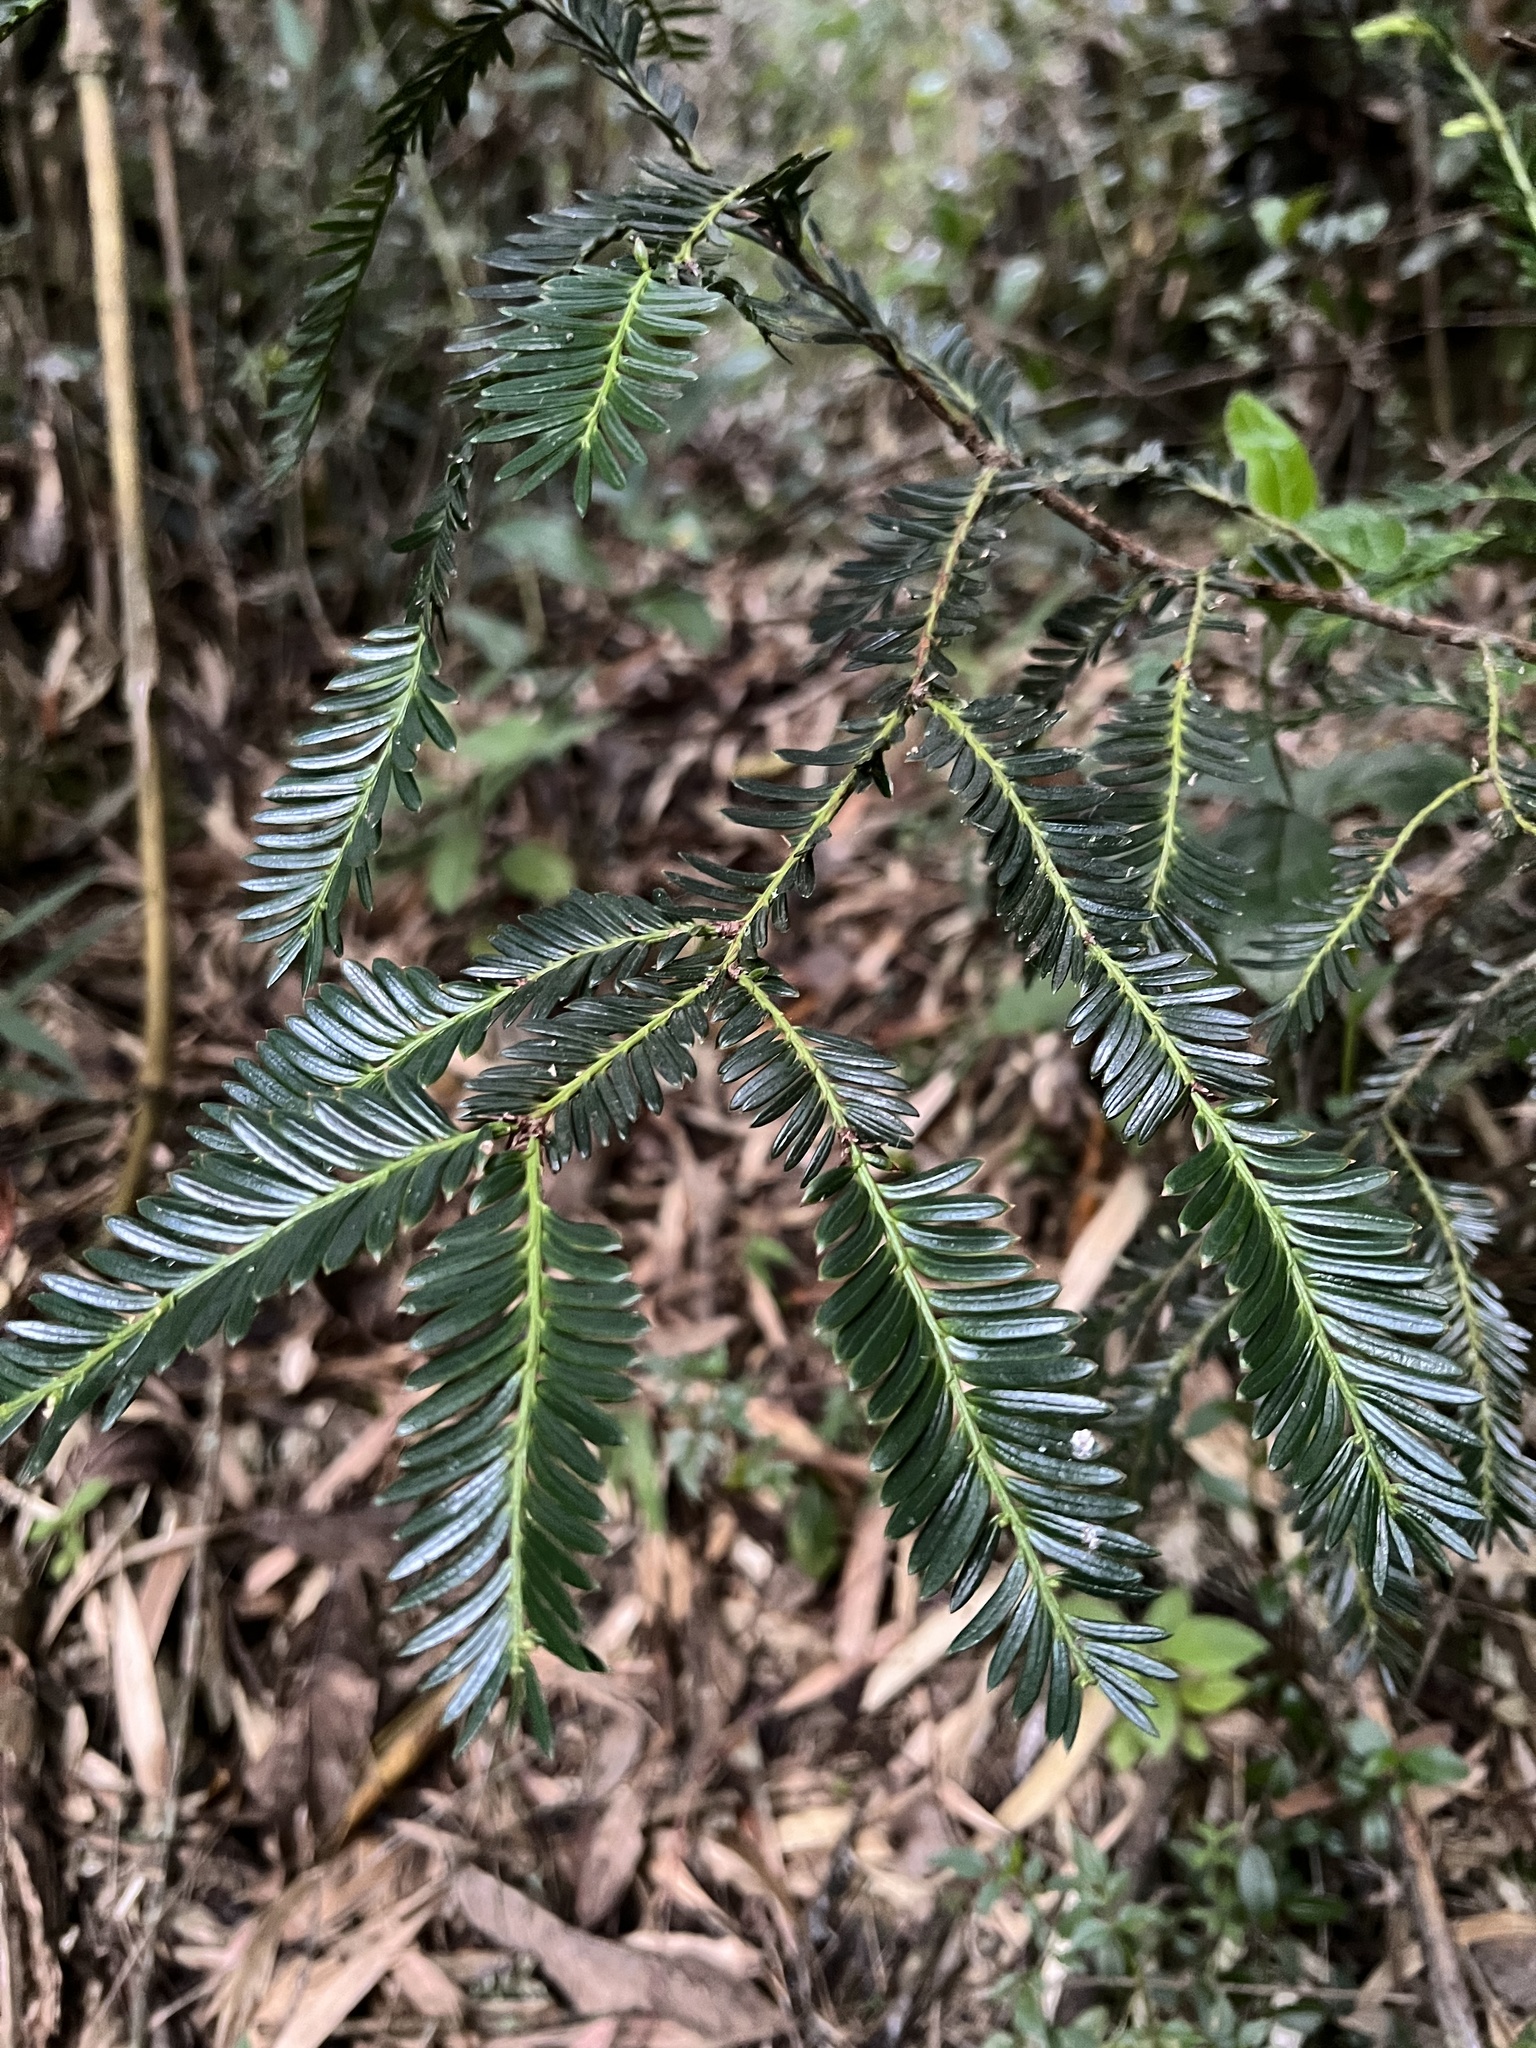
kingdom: Plantae
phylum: Tracheophyta
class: Pinopsida
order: Pinales
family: Podocarpaceae
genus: Prumnopitys
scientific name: Prumnopitys montana
